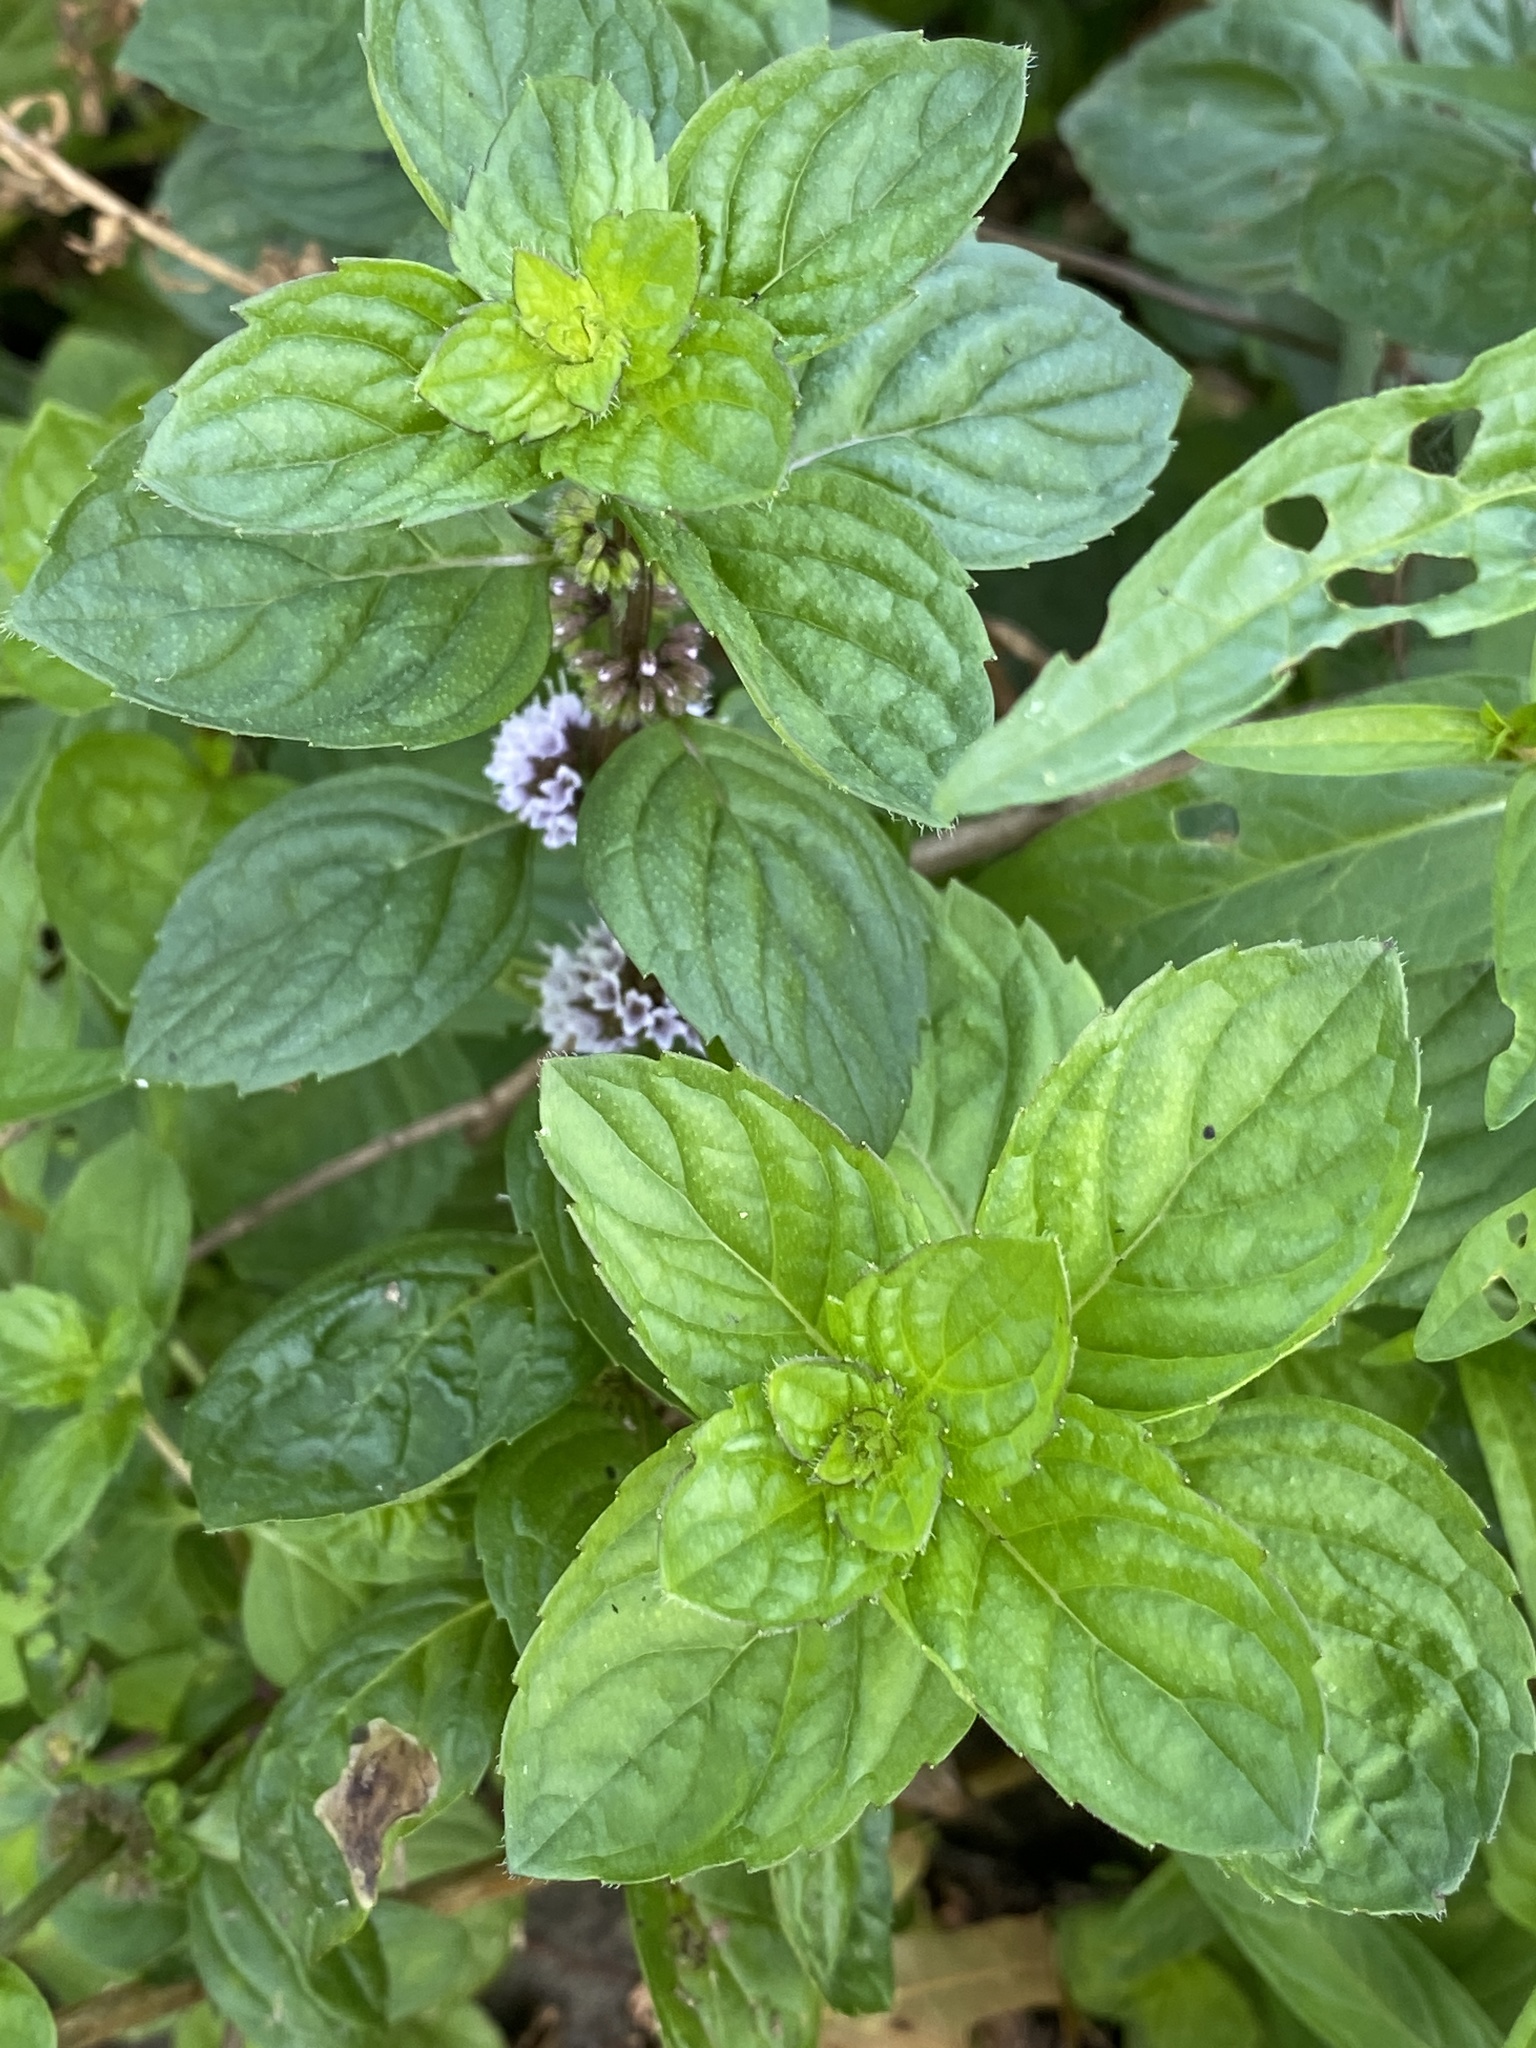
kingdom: Plantae
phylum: Tracheophyta
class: Magnoliopsida
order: Lamiales
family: Lamiaceae
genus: Mentha
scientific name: Mentha arvensis
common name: Corn mint
